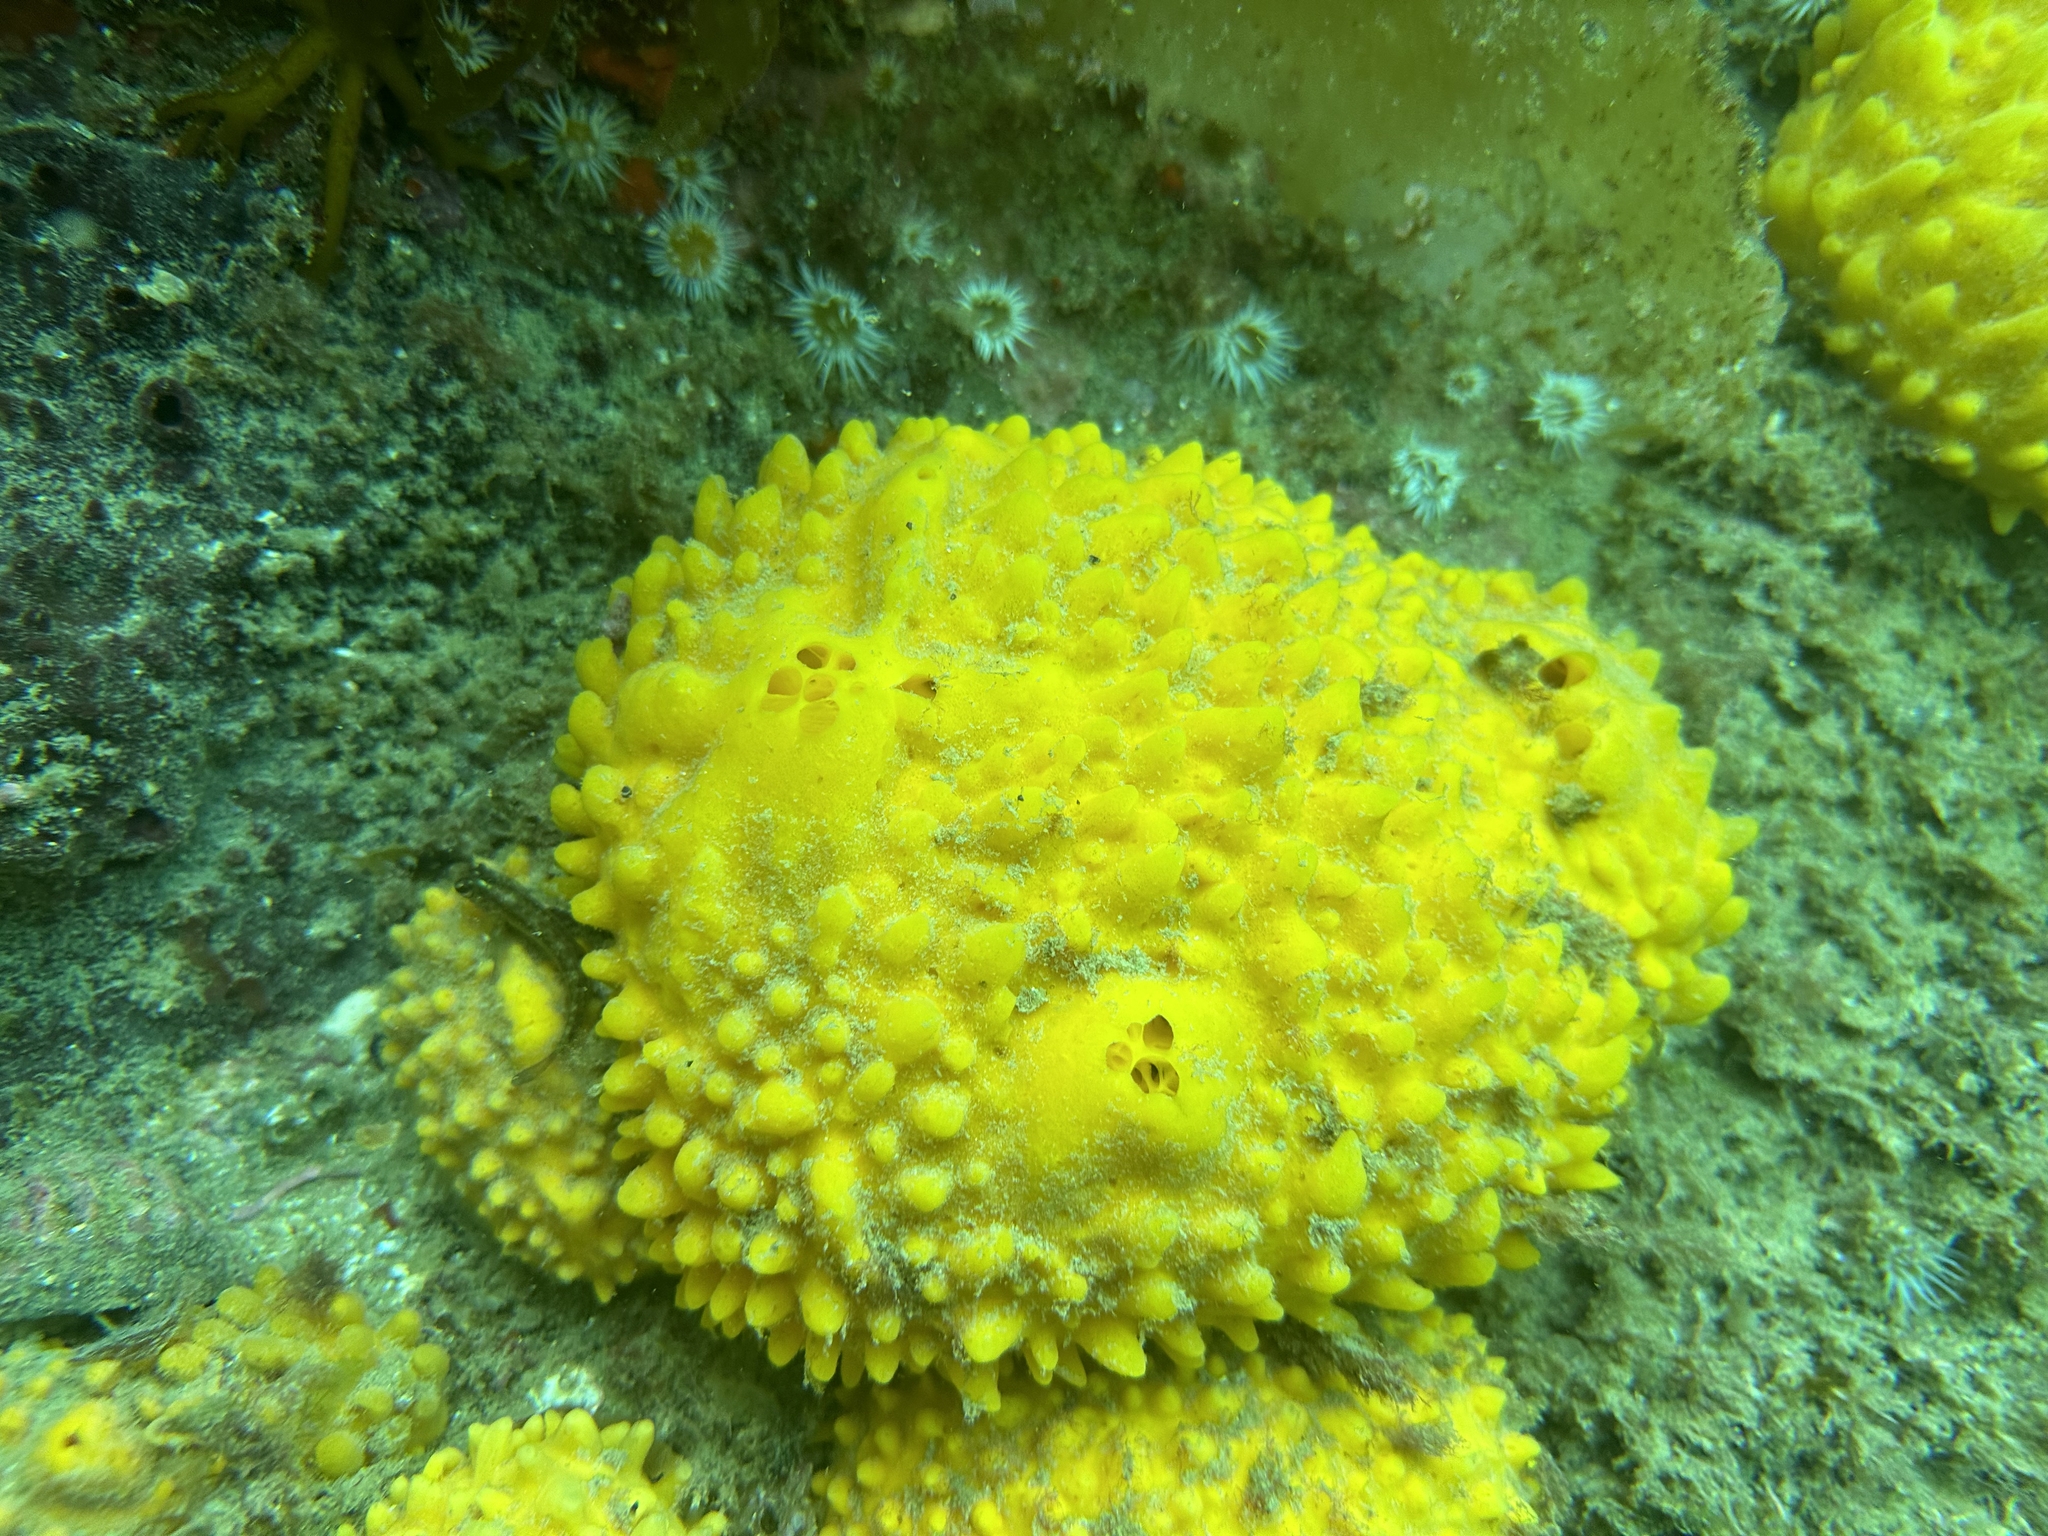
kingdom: Animalia
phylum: Porifera
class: Demospongiae
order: Polymastiida
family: Polymastiidae
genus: Polymastia
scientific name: Polymastia crocea
